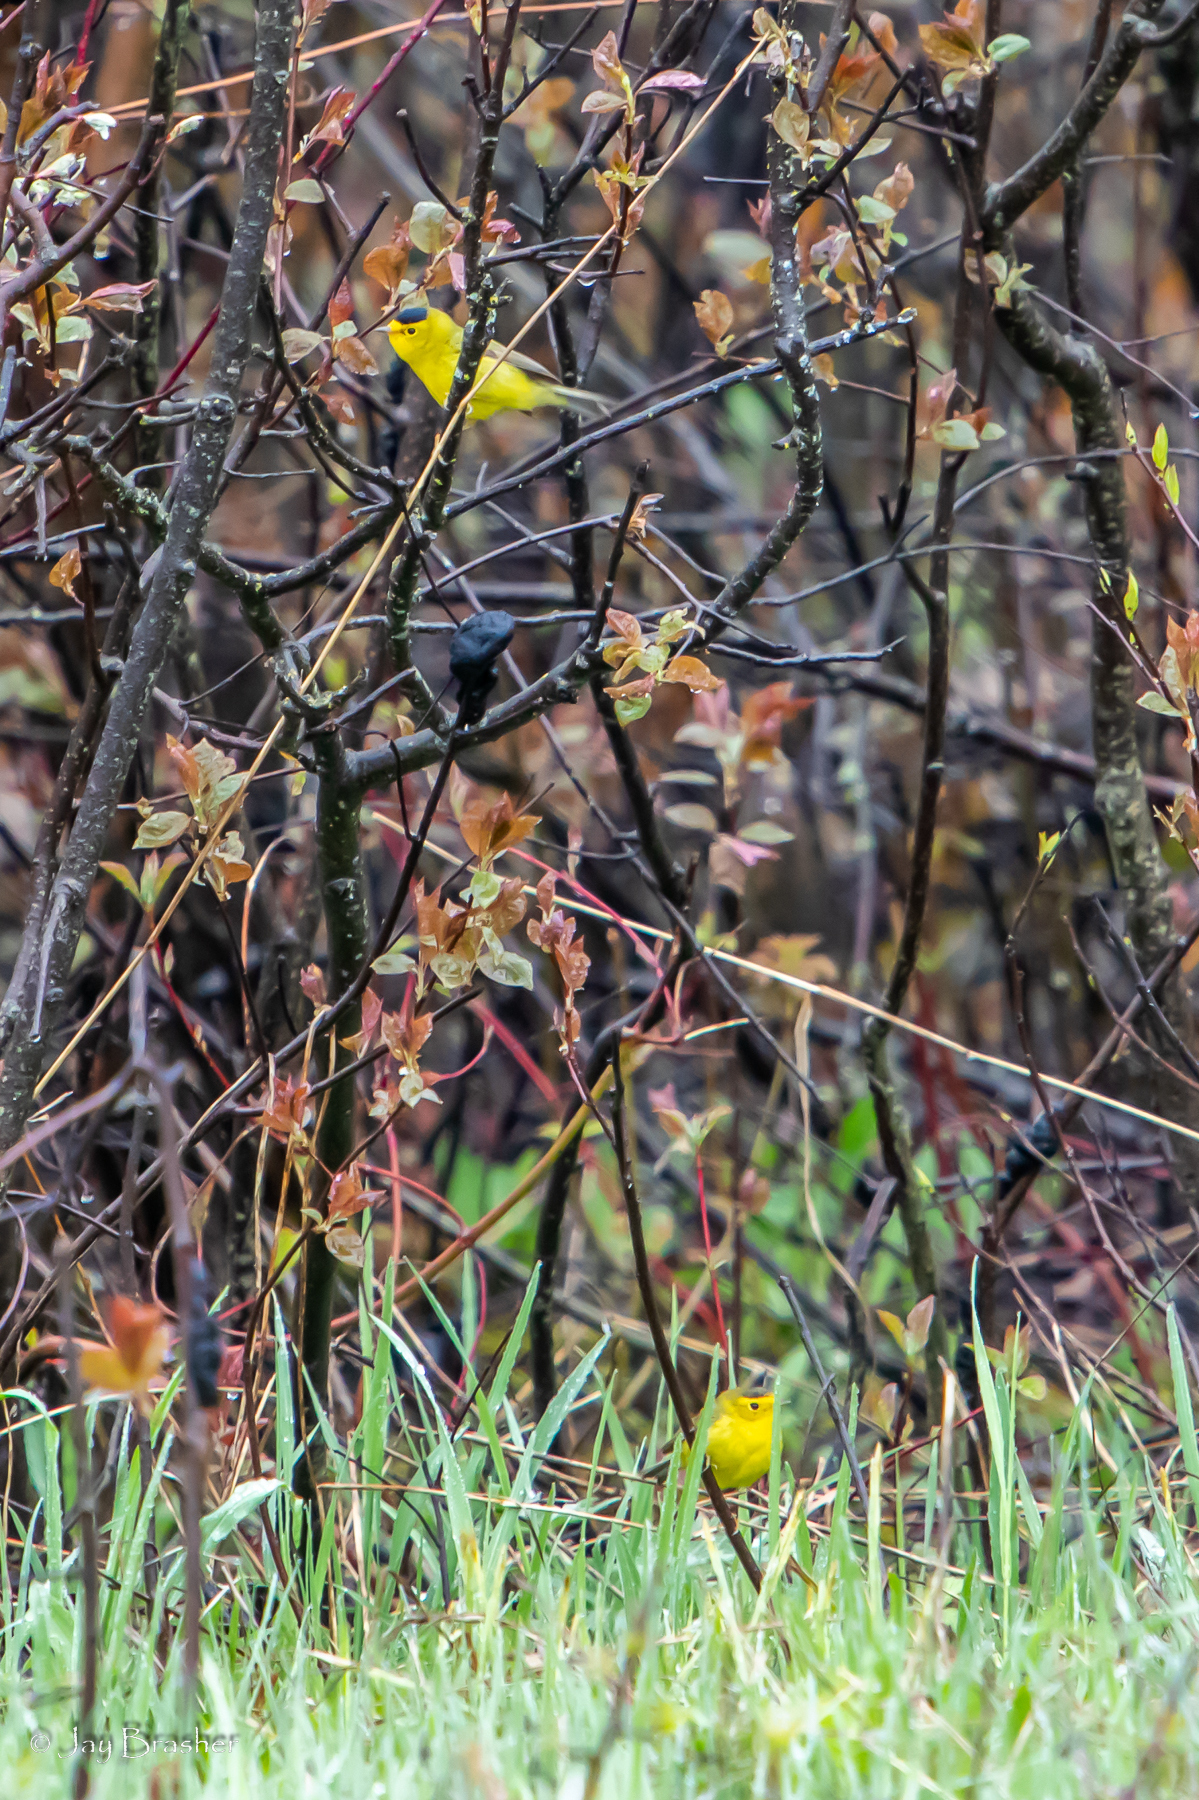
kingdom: Animalia
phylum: Chordata
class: Aves
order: Passeriformes
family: Parulidae
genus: Cardellina
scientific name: Cardellina pusilla
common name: Wilson's warbler
